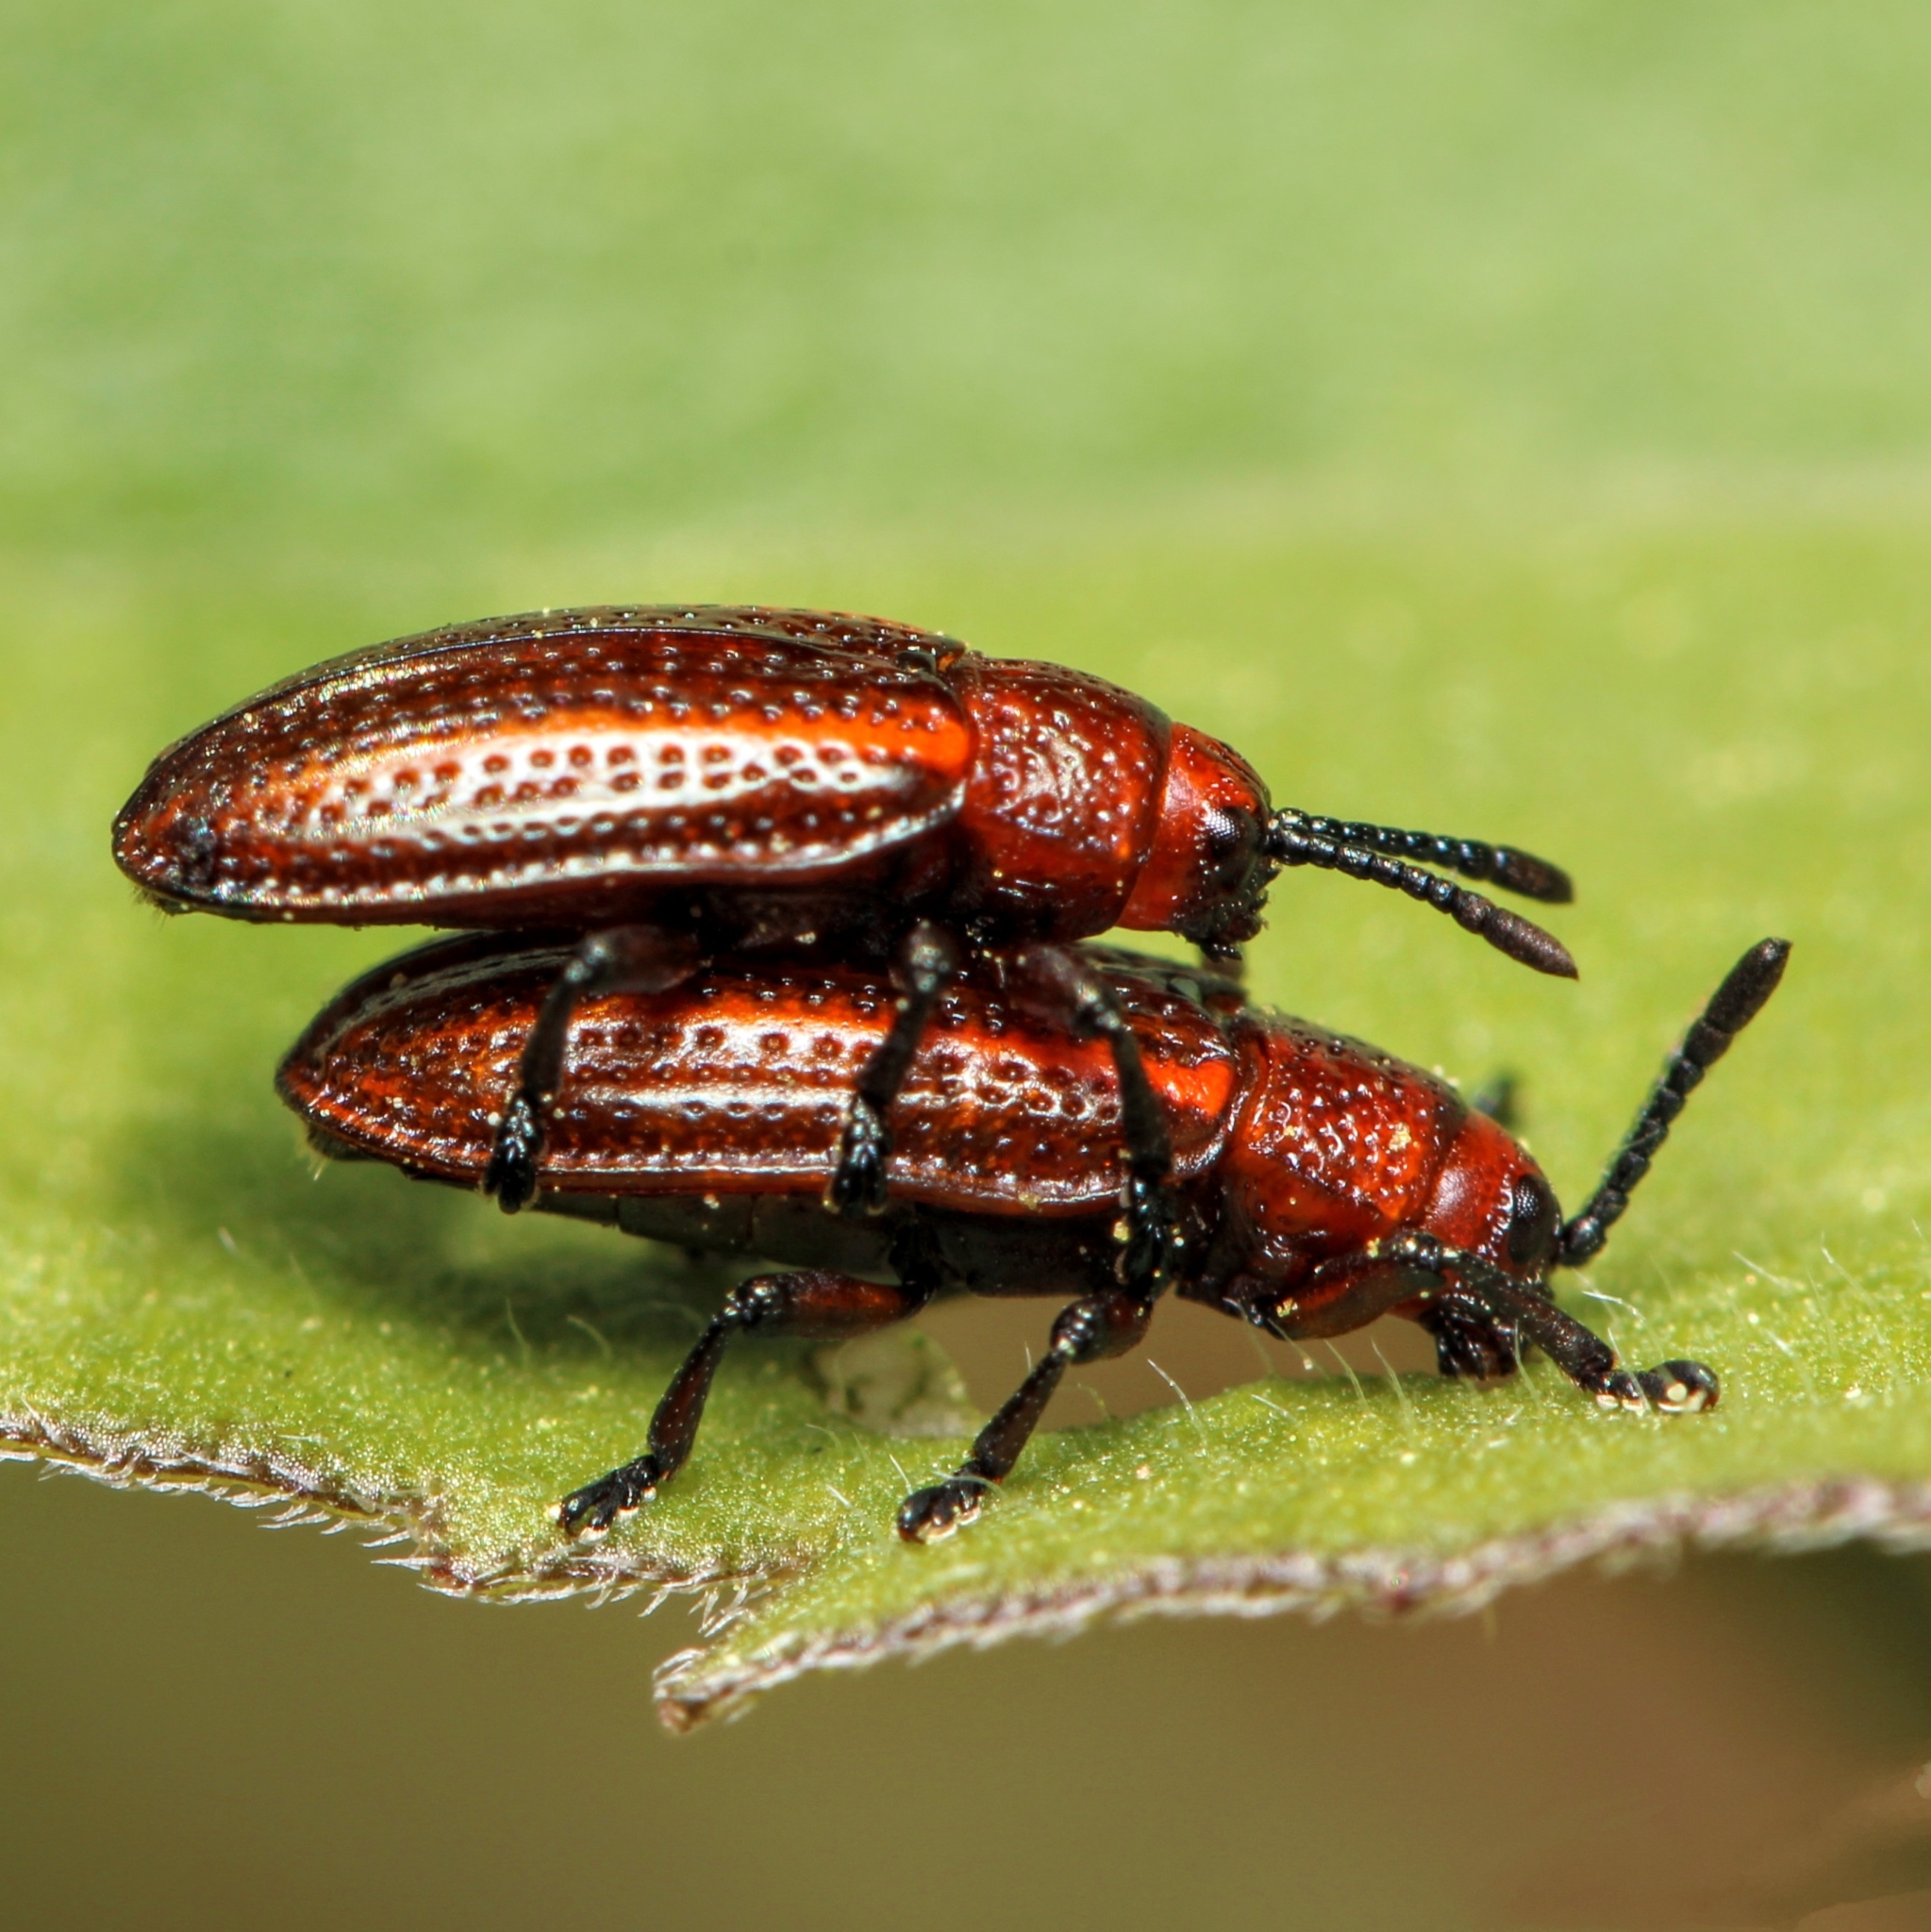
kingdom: Animalia
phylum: Arthropoda
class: Insecta
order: Coleoptera
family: Chrysomelidae
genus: Microrhopala
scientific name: Microrhopala vittata
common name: Goldenrod leaf miner beetle
